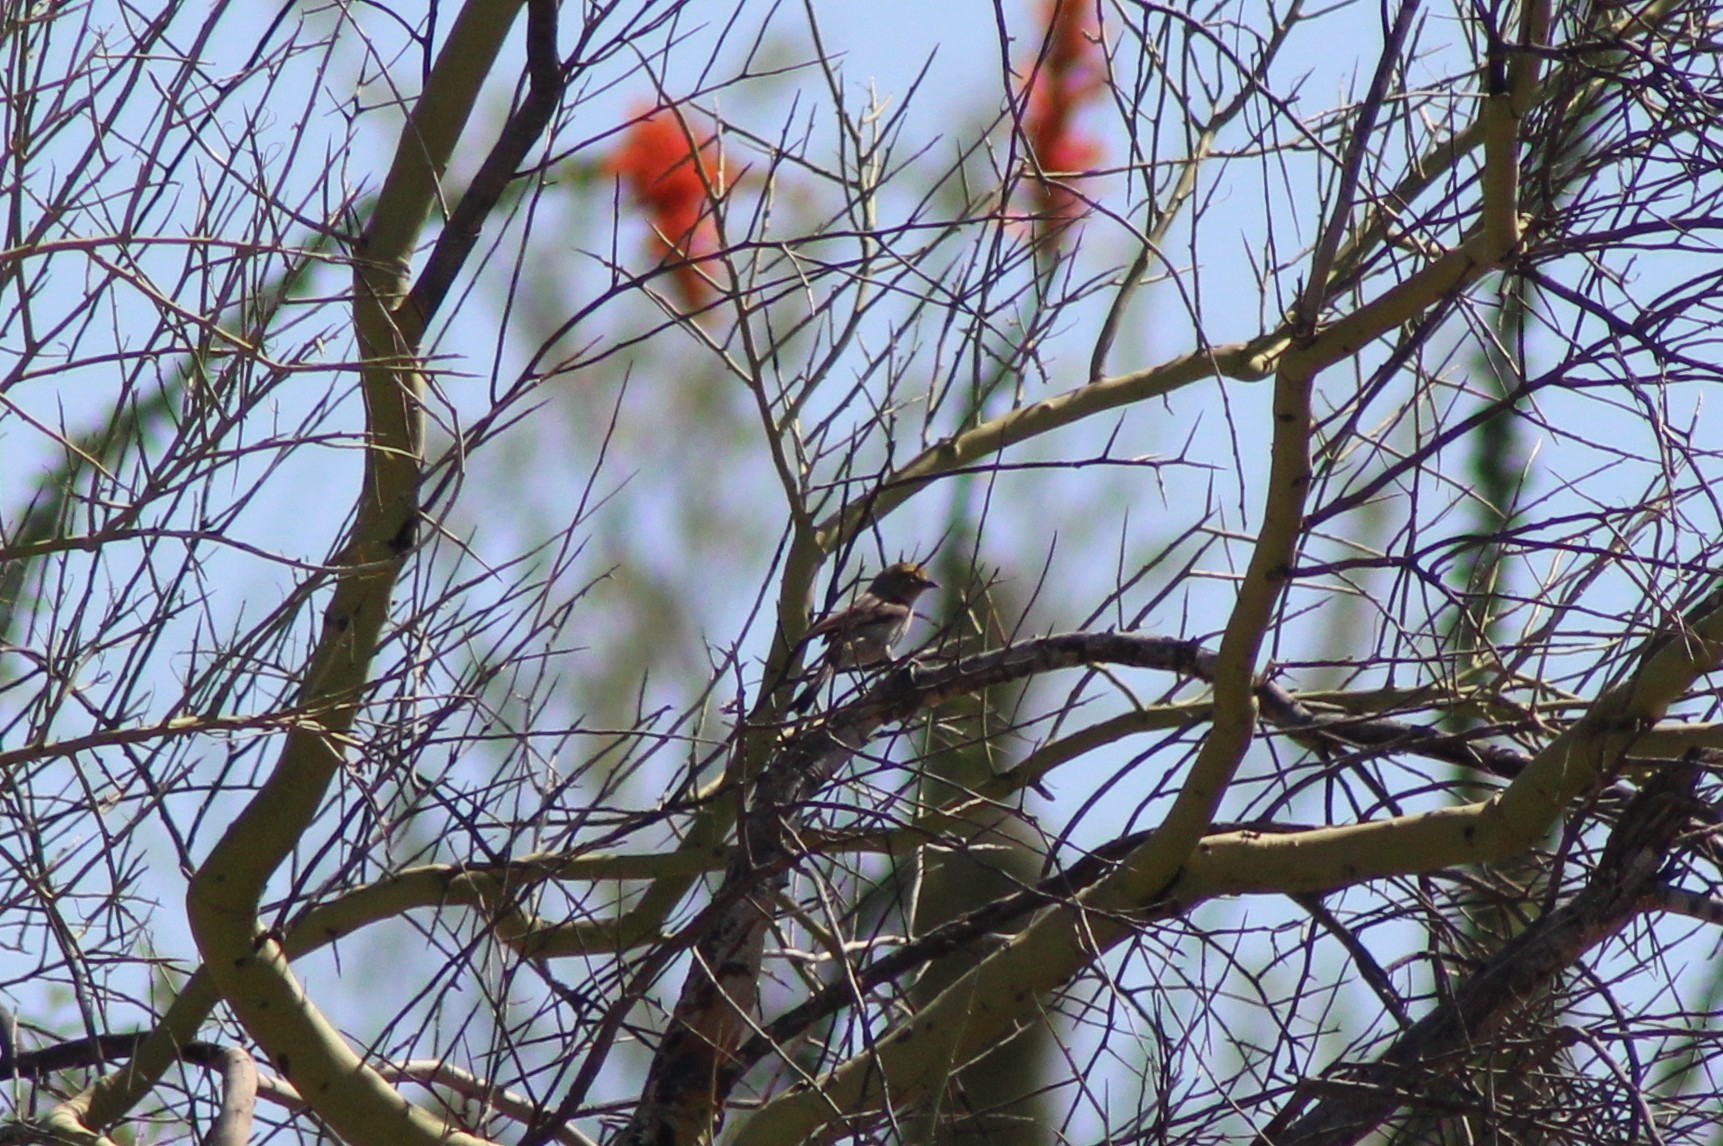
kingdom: Animalia
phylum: Chordata
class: Aves
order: Passeriformes
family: Remizidae
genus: Auriparus
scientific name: Auriparus flaviceps
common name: Verdin
